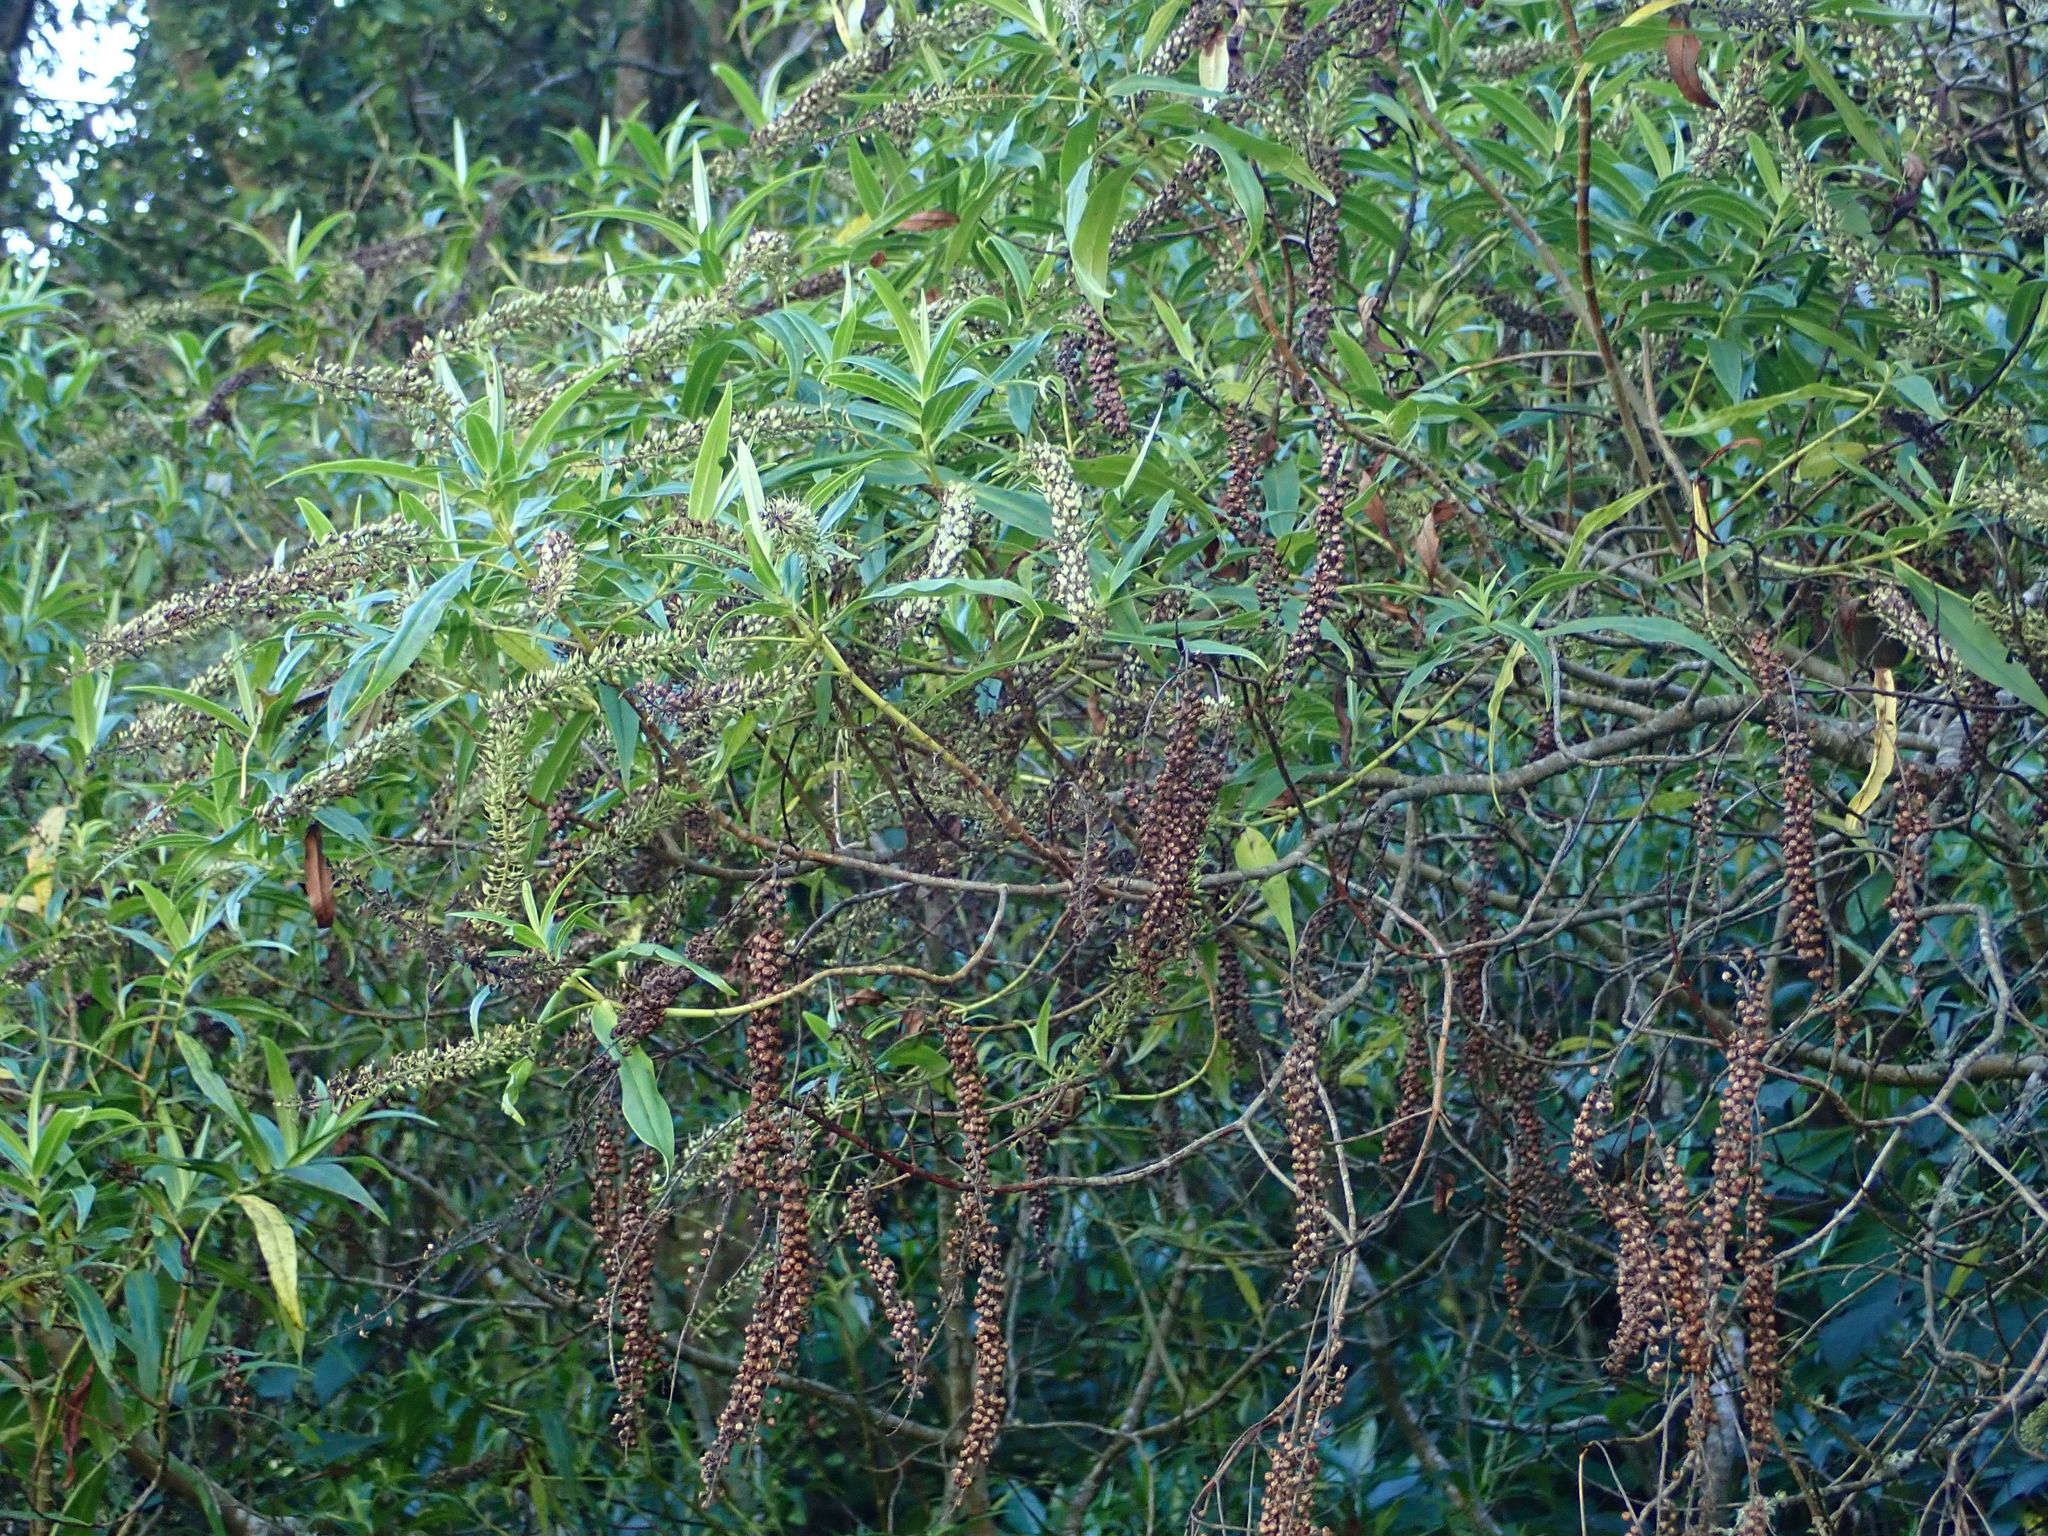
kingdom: Plantae
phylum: Tracheophyta
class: Magnoliopsida
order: Lamiales
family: Plantaginaceae
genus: Veronica
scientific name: Veronica salicifolia
